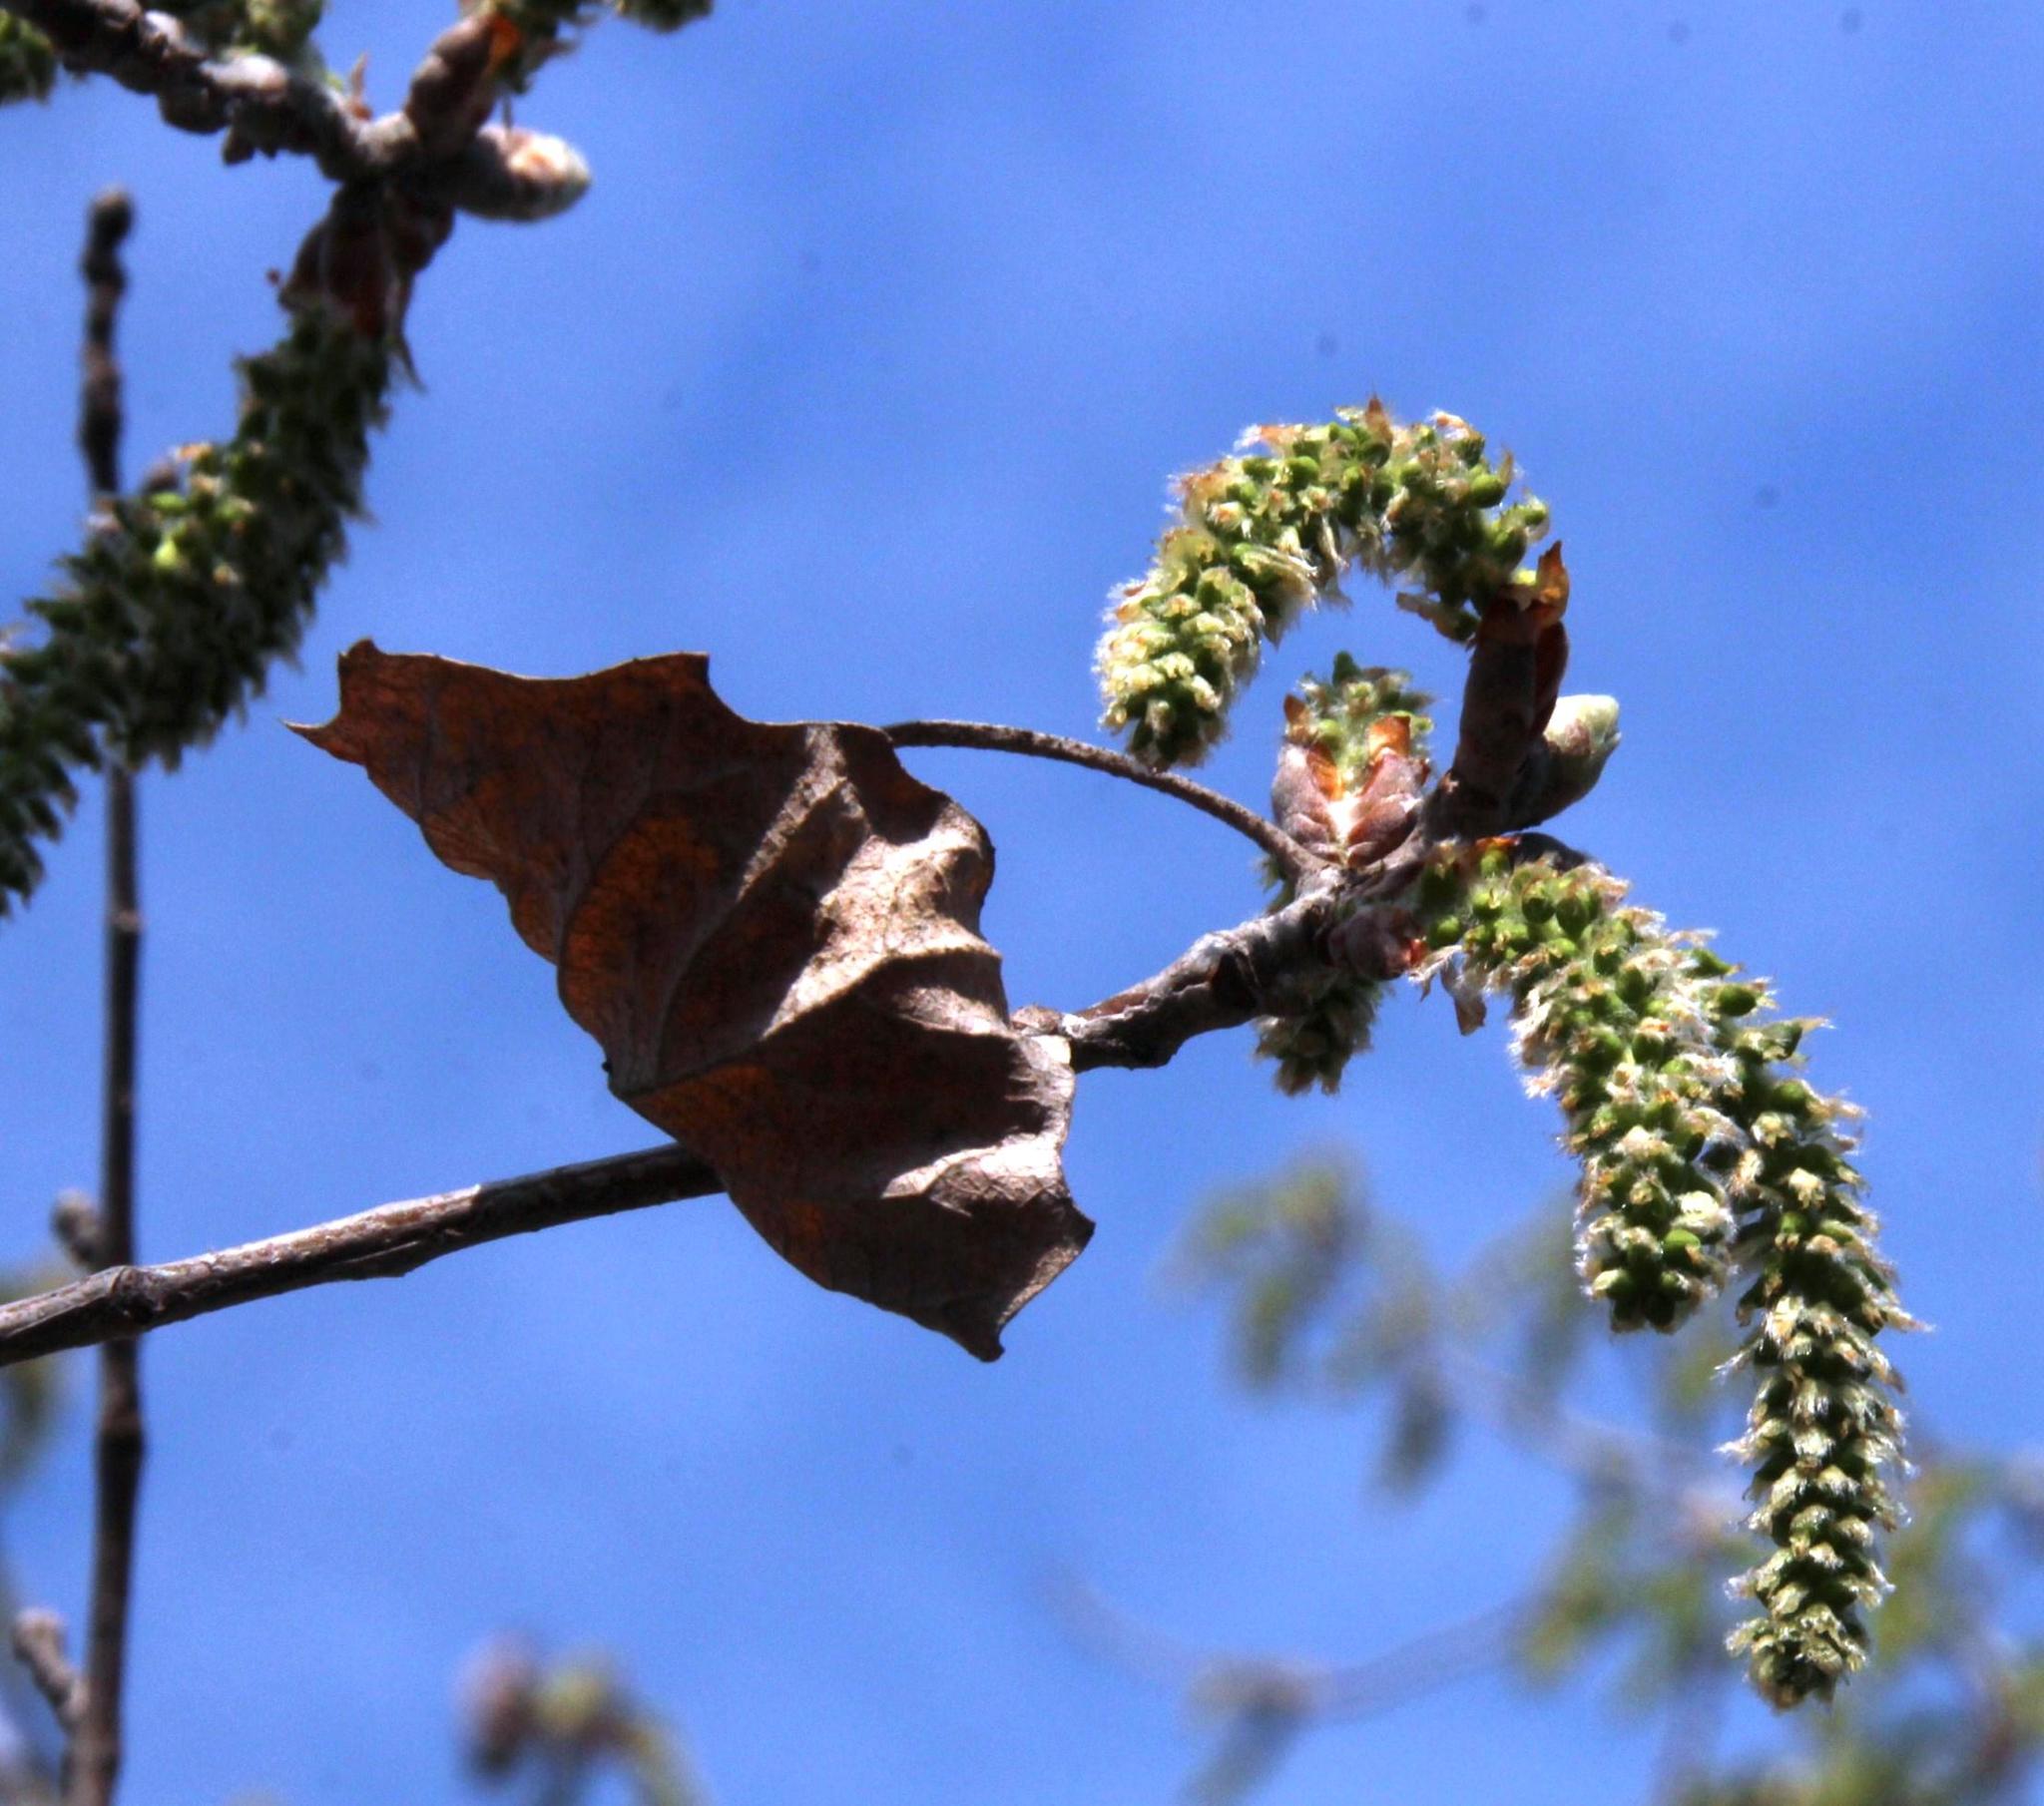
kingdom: Plantae
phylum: Tracheophyta
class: Magnoliopsida
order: Malpighiales
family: Salicaceae
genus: Populus
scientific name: Populus alba
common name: White poplar
